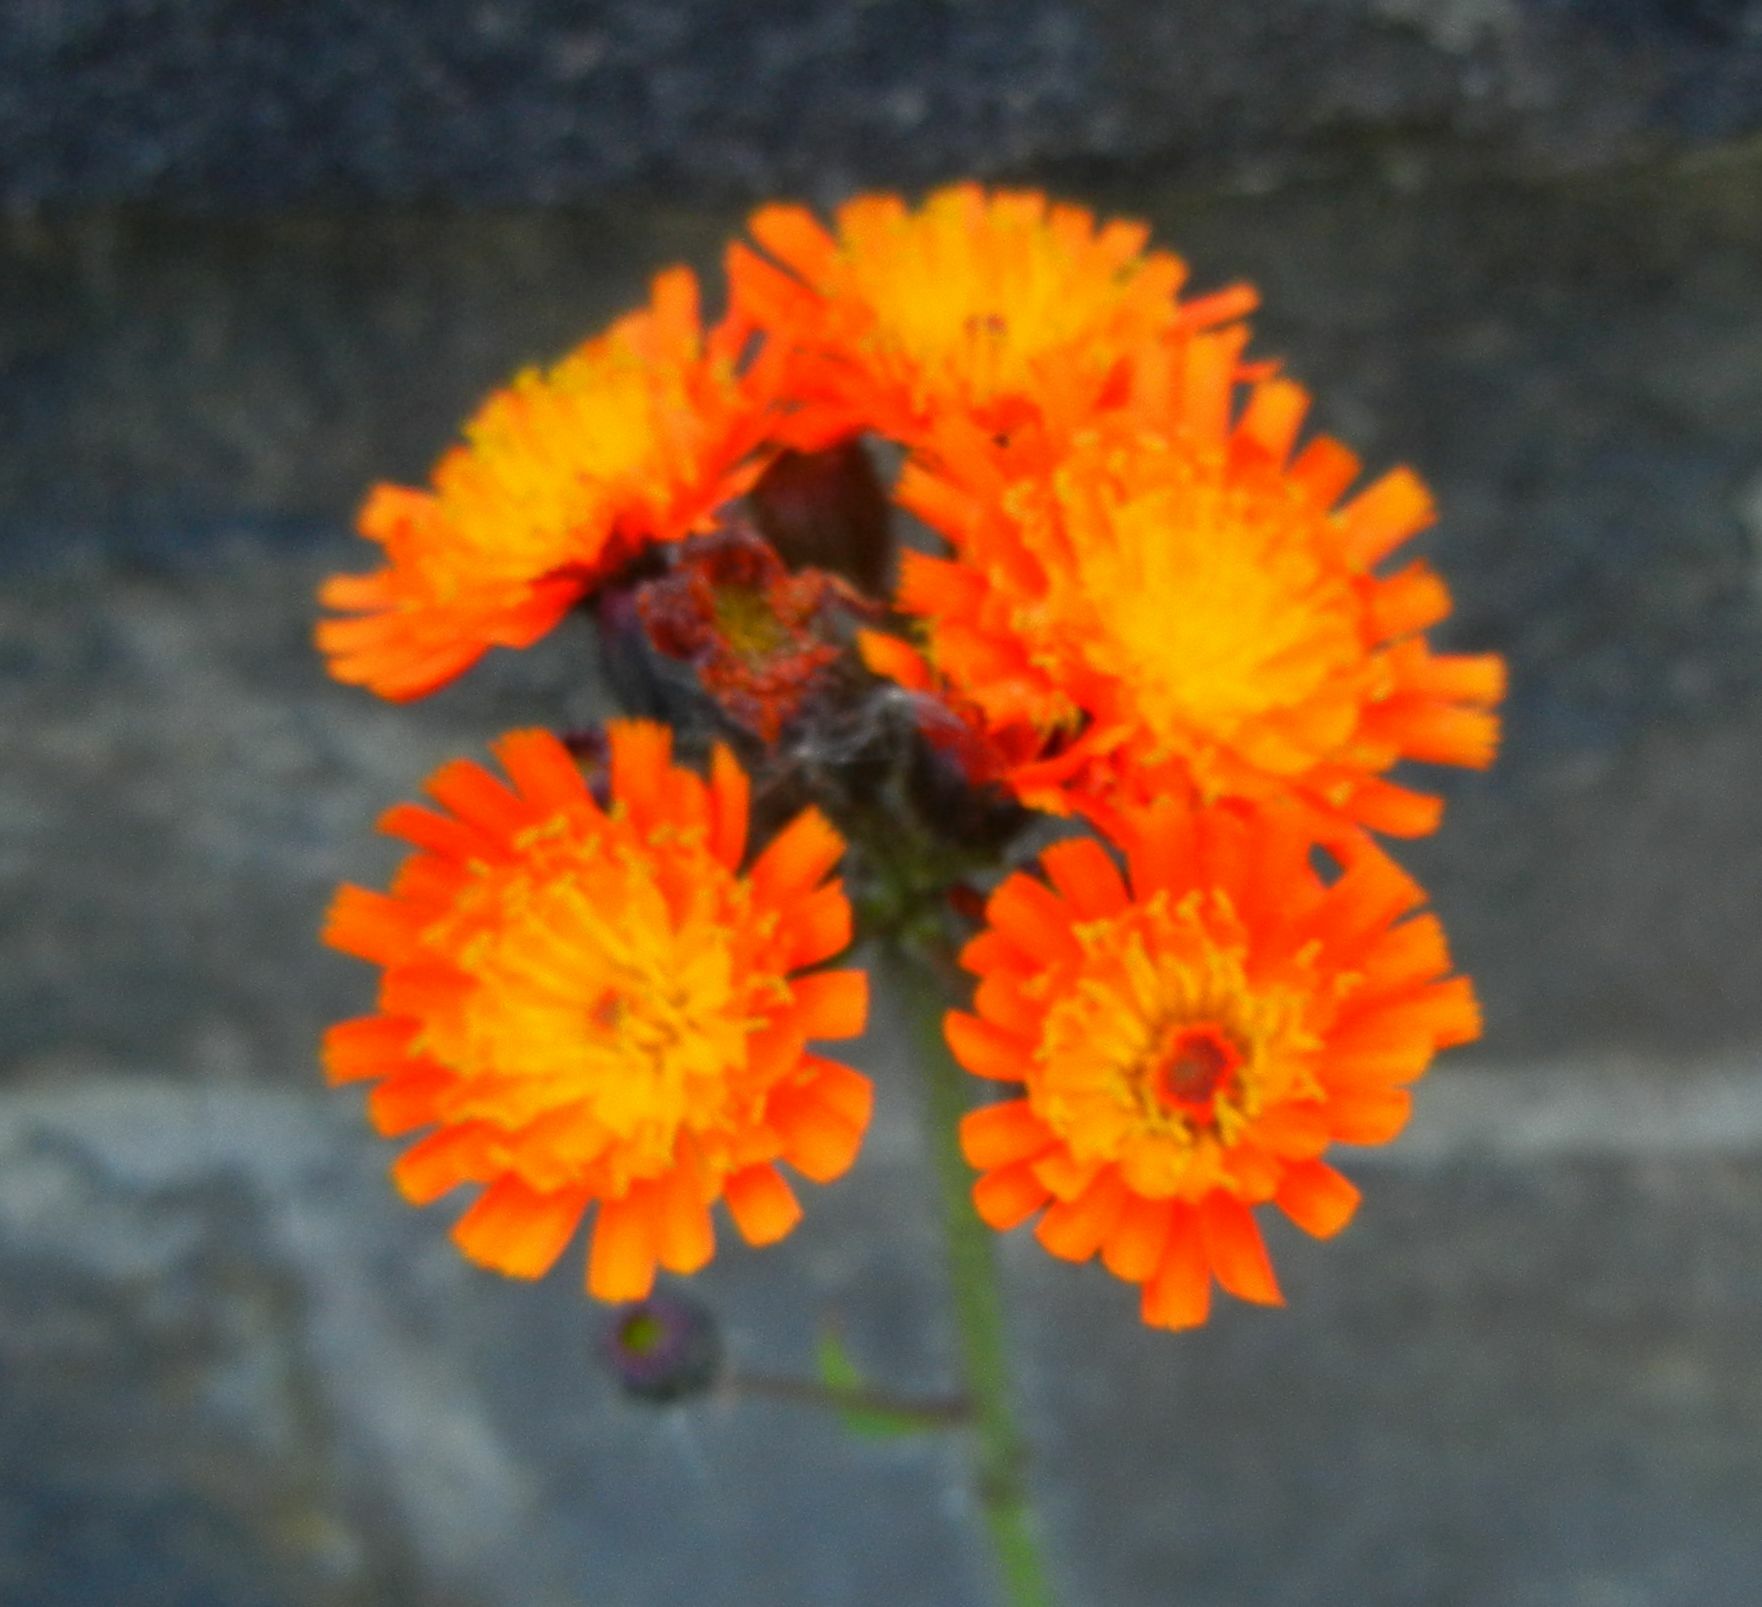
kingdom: Plantae
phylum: Tracheophyta
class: Magnoliopsida
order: Asterales
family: Asteraceae
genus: Pilosella
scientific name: Pilosella aurantiaca
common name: Fox-and-cubs
